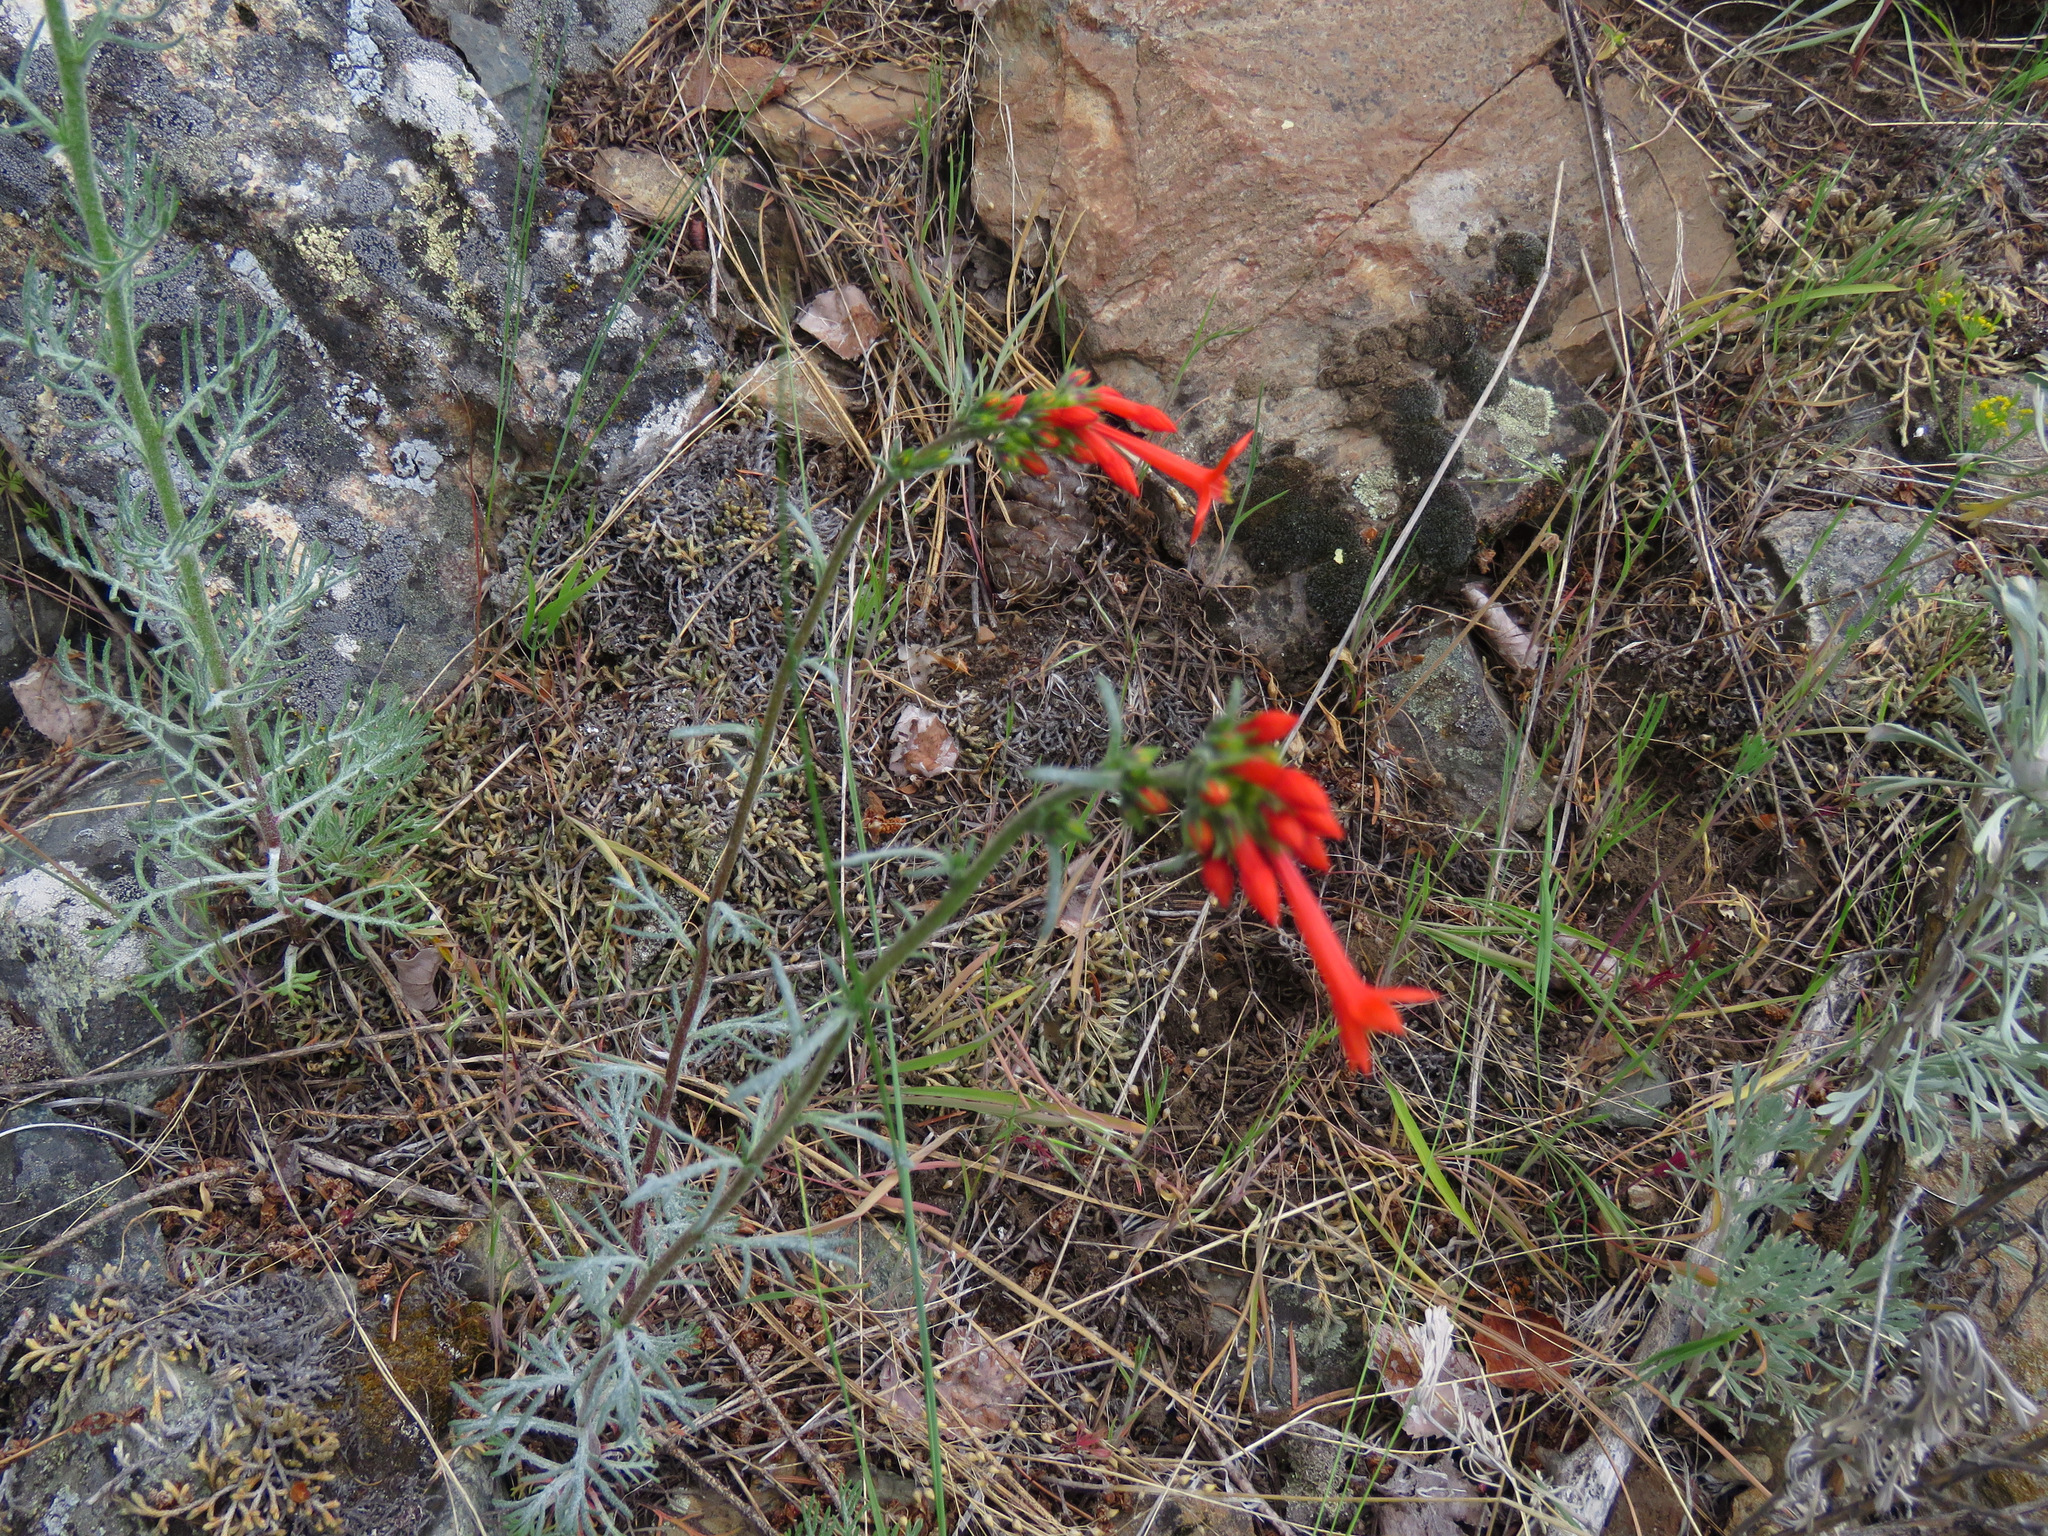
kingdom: Plantae
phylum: Tracheophyta
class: Magnoliopsida
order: Ericales
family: Polemoniaceae
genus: Ipomopsis
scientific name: Ipomopsis aggregata
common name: Scarlet gilia
